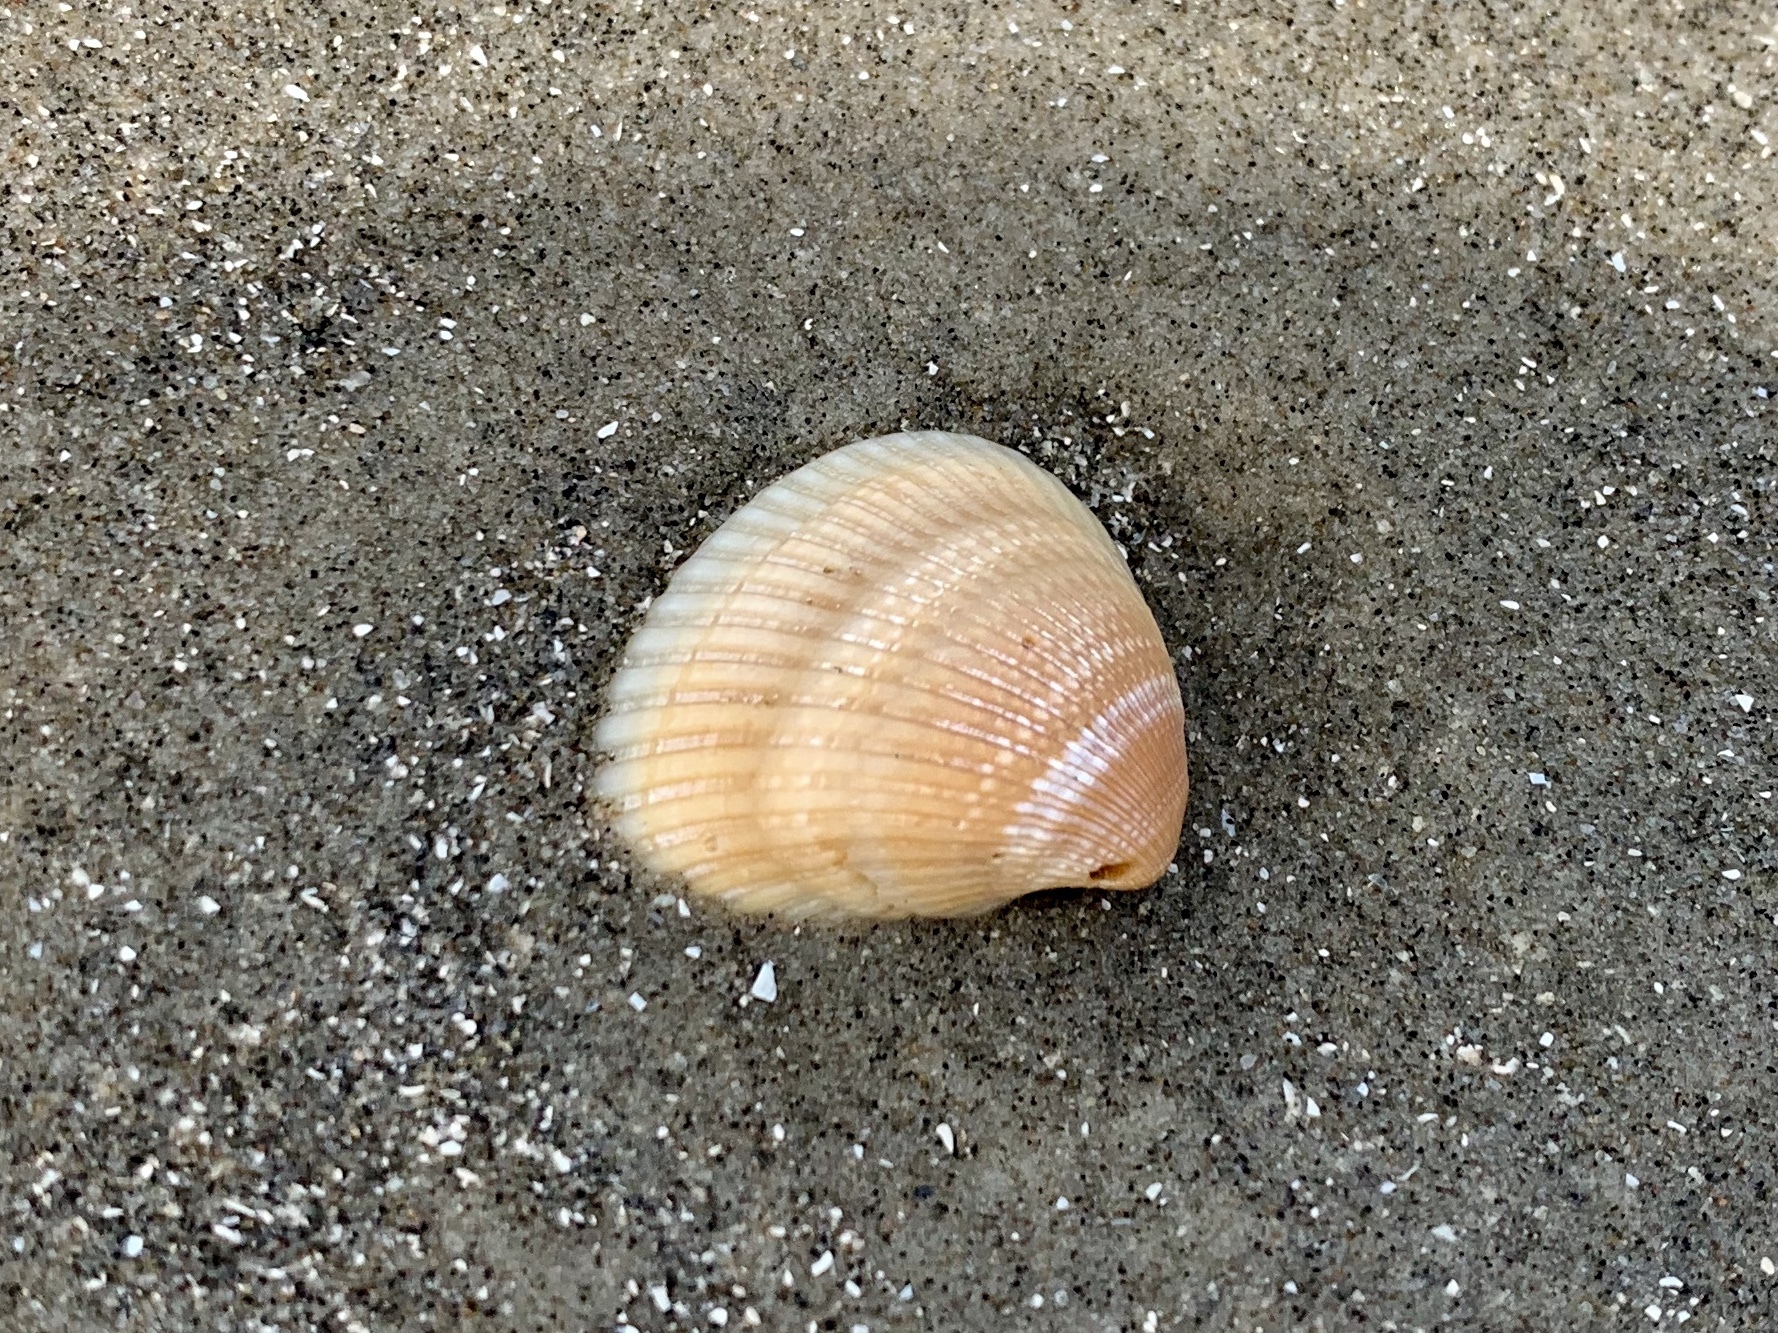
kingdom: Animalia
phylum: Mollusca
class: Bivalvia
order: Arcida
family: Noetiidae
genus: Noetia
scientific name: Noetia ponderosa
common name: Ponderous ark
